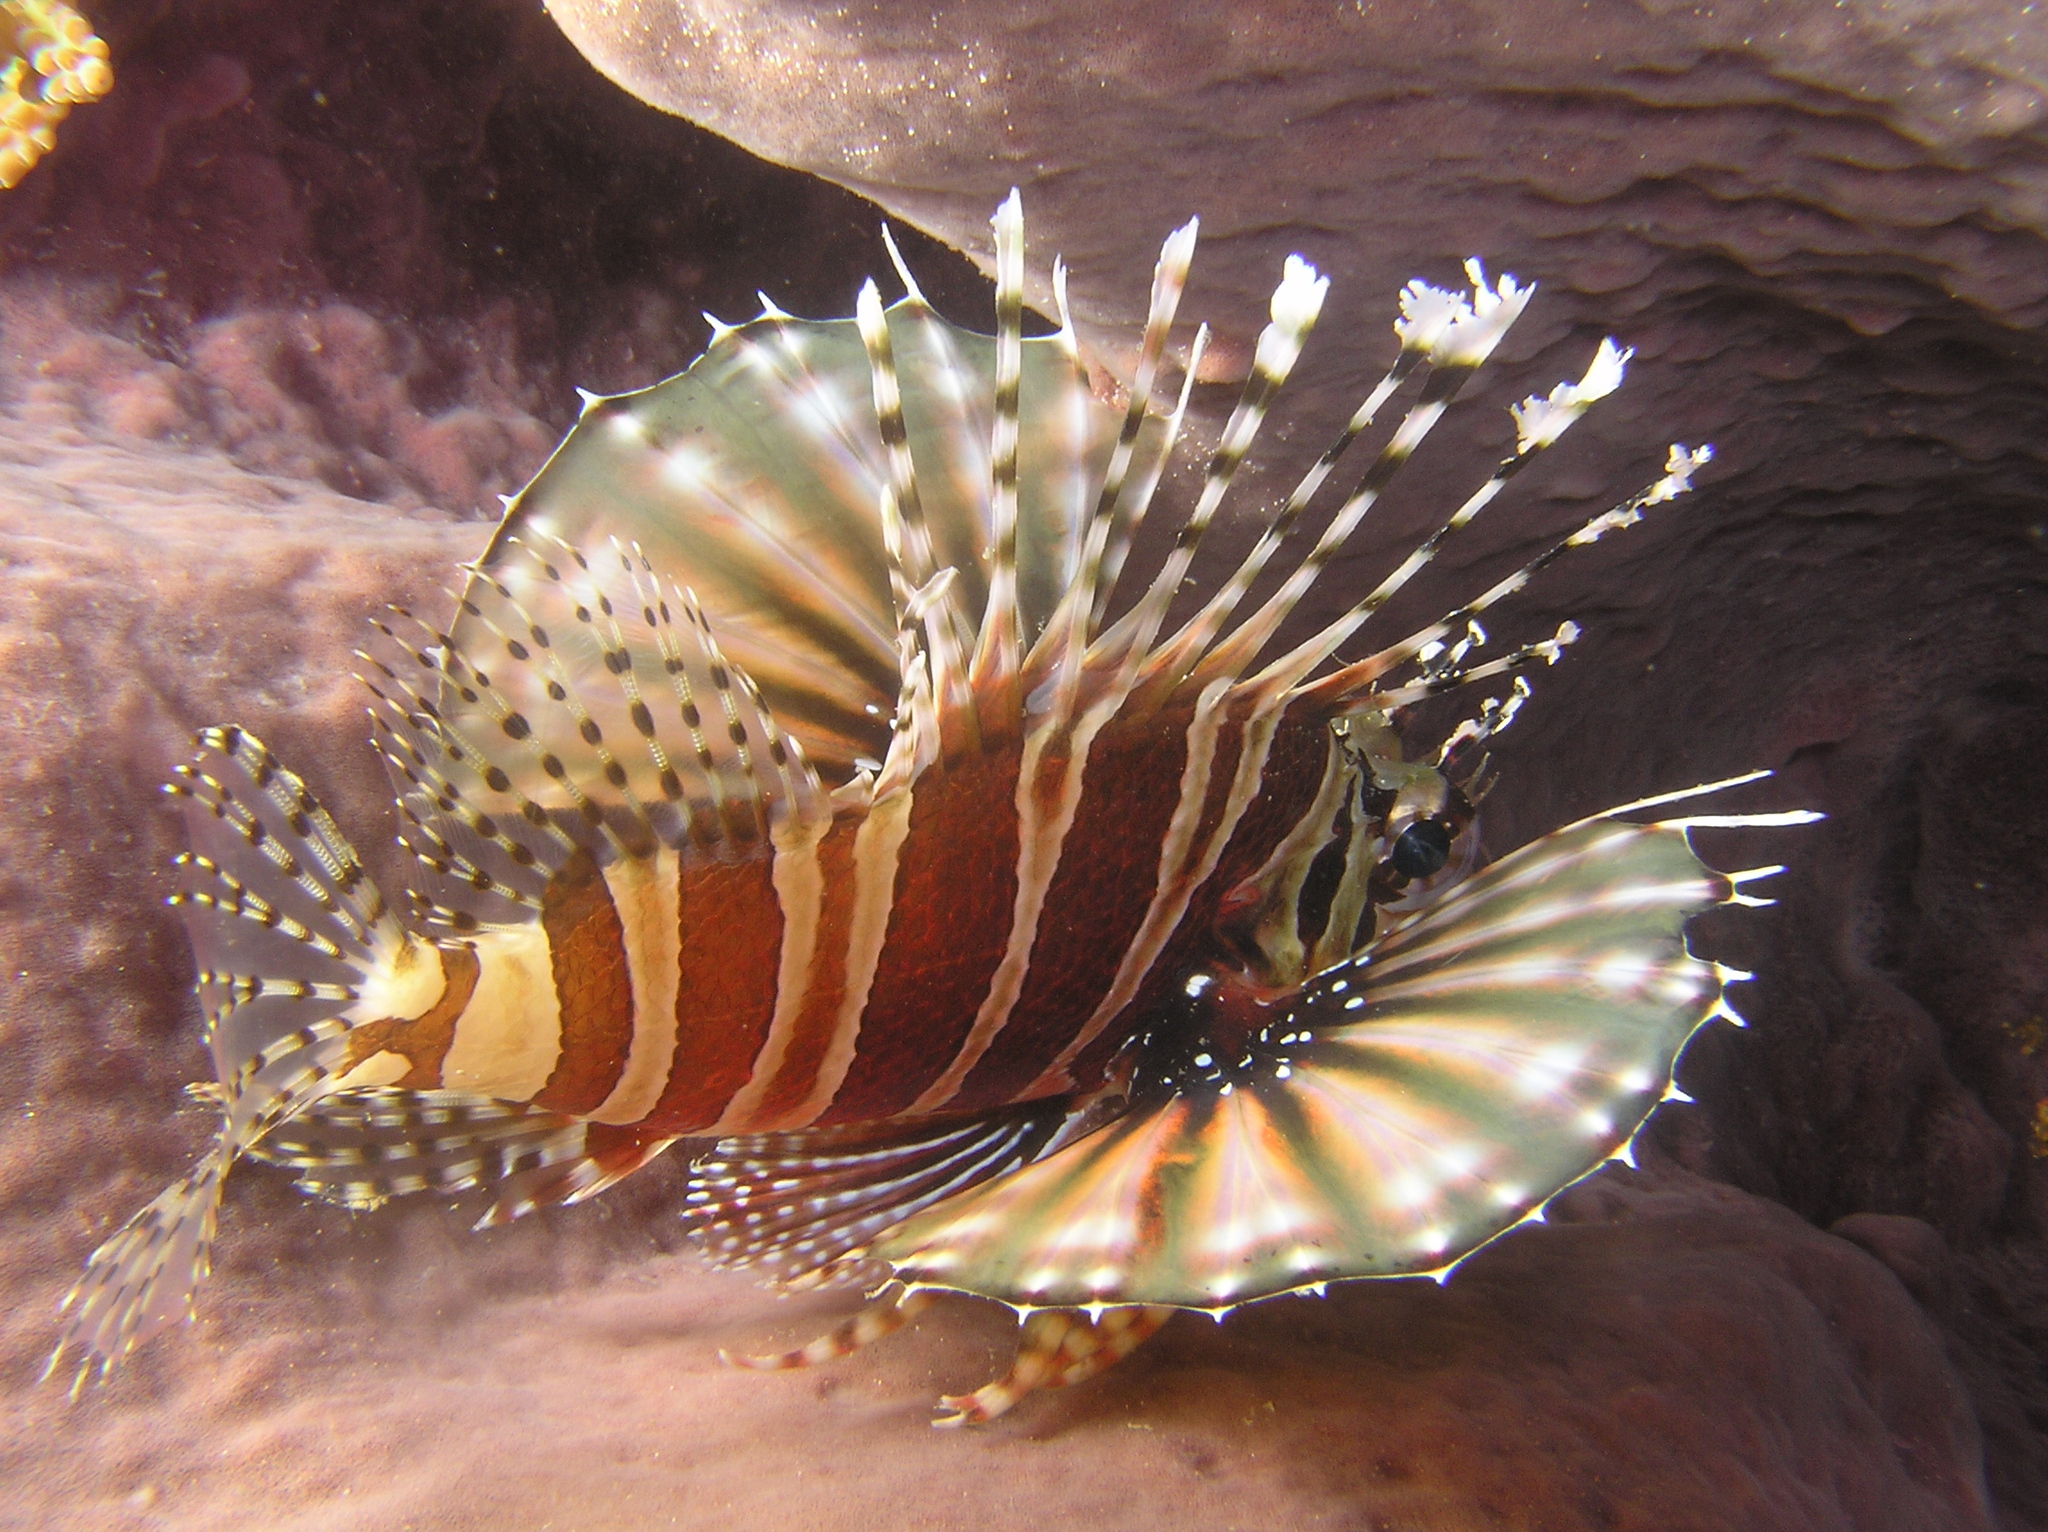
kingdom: Animalia
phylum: Chordata
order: Scorpaeniformes
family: Scorpaenidae
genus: Dendrochirus
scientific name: Dendrochirus zebra
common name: Zebra lionfish
